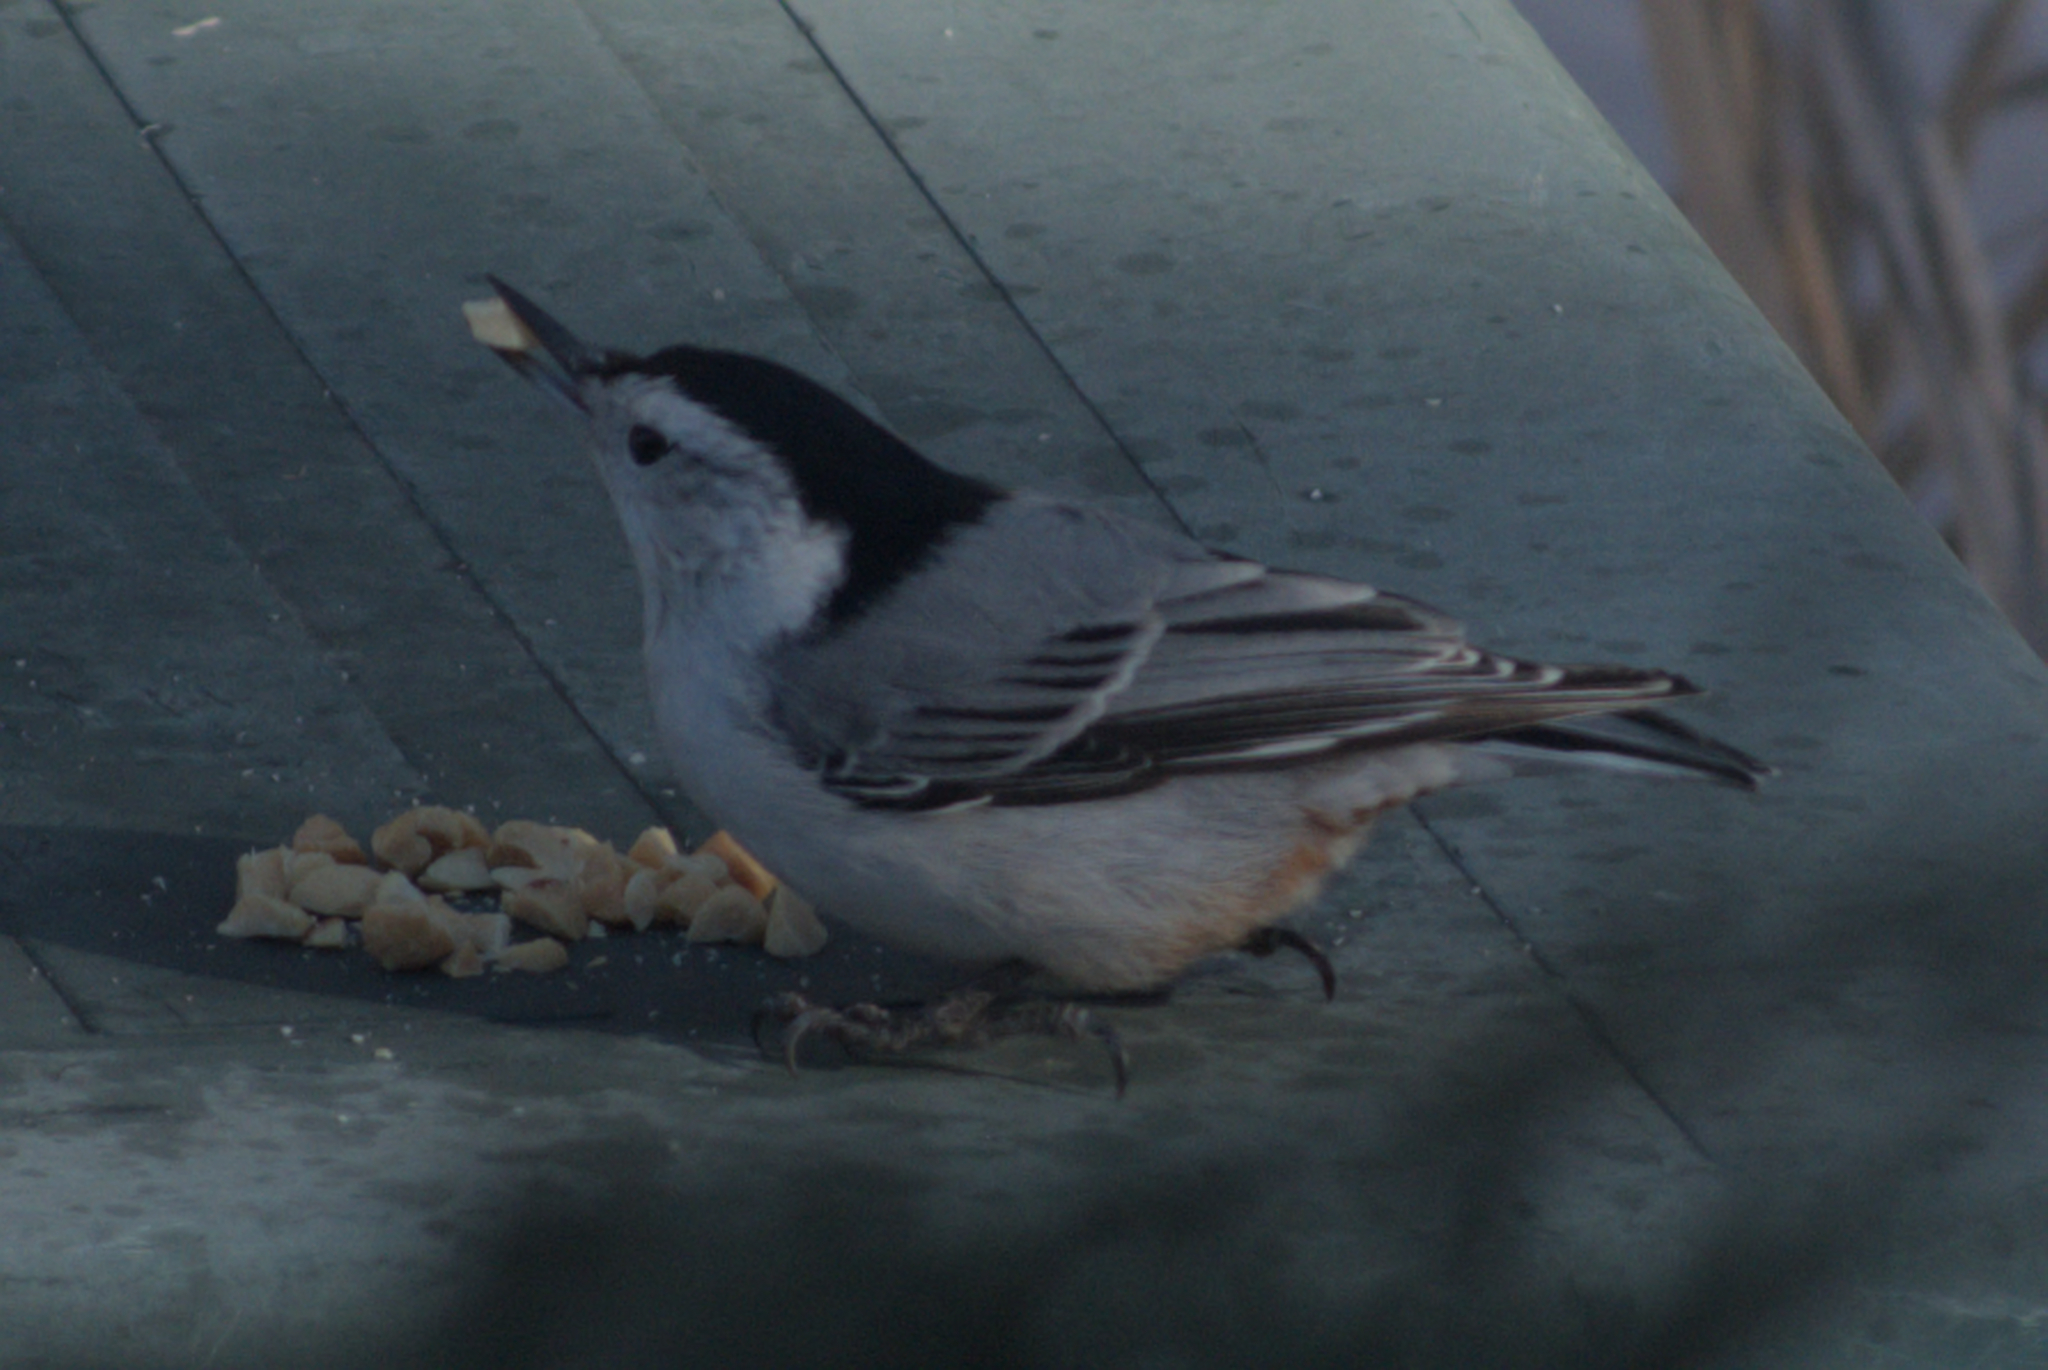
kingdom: Animalia
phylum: Chordata
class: Aves
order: Passeriformes
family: Sittidae
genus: Sitta
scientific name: Sitta carolinensis
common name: White-breasted nuthatch
